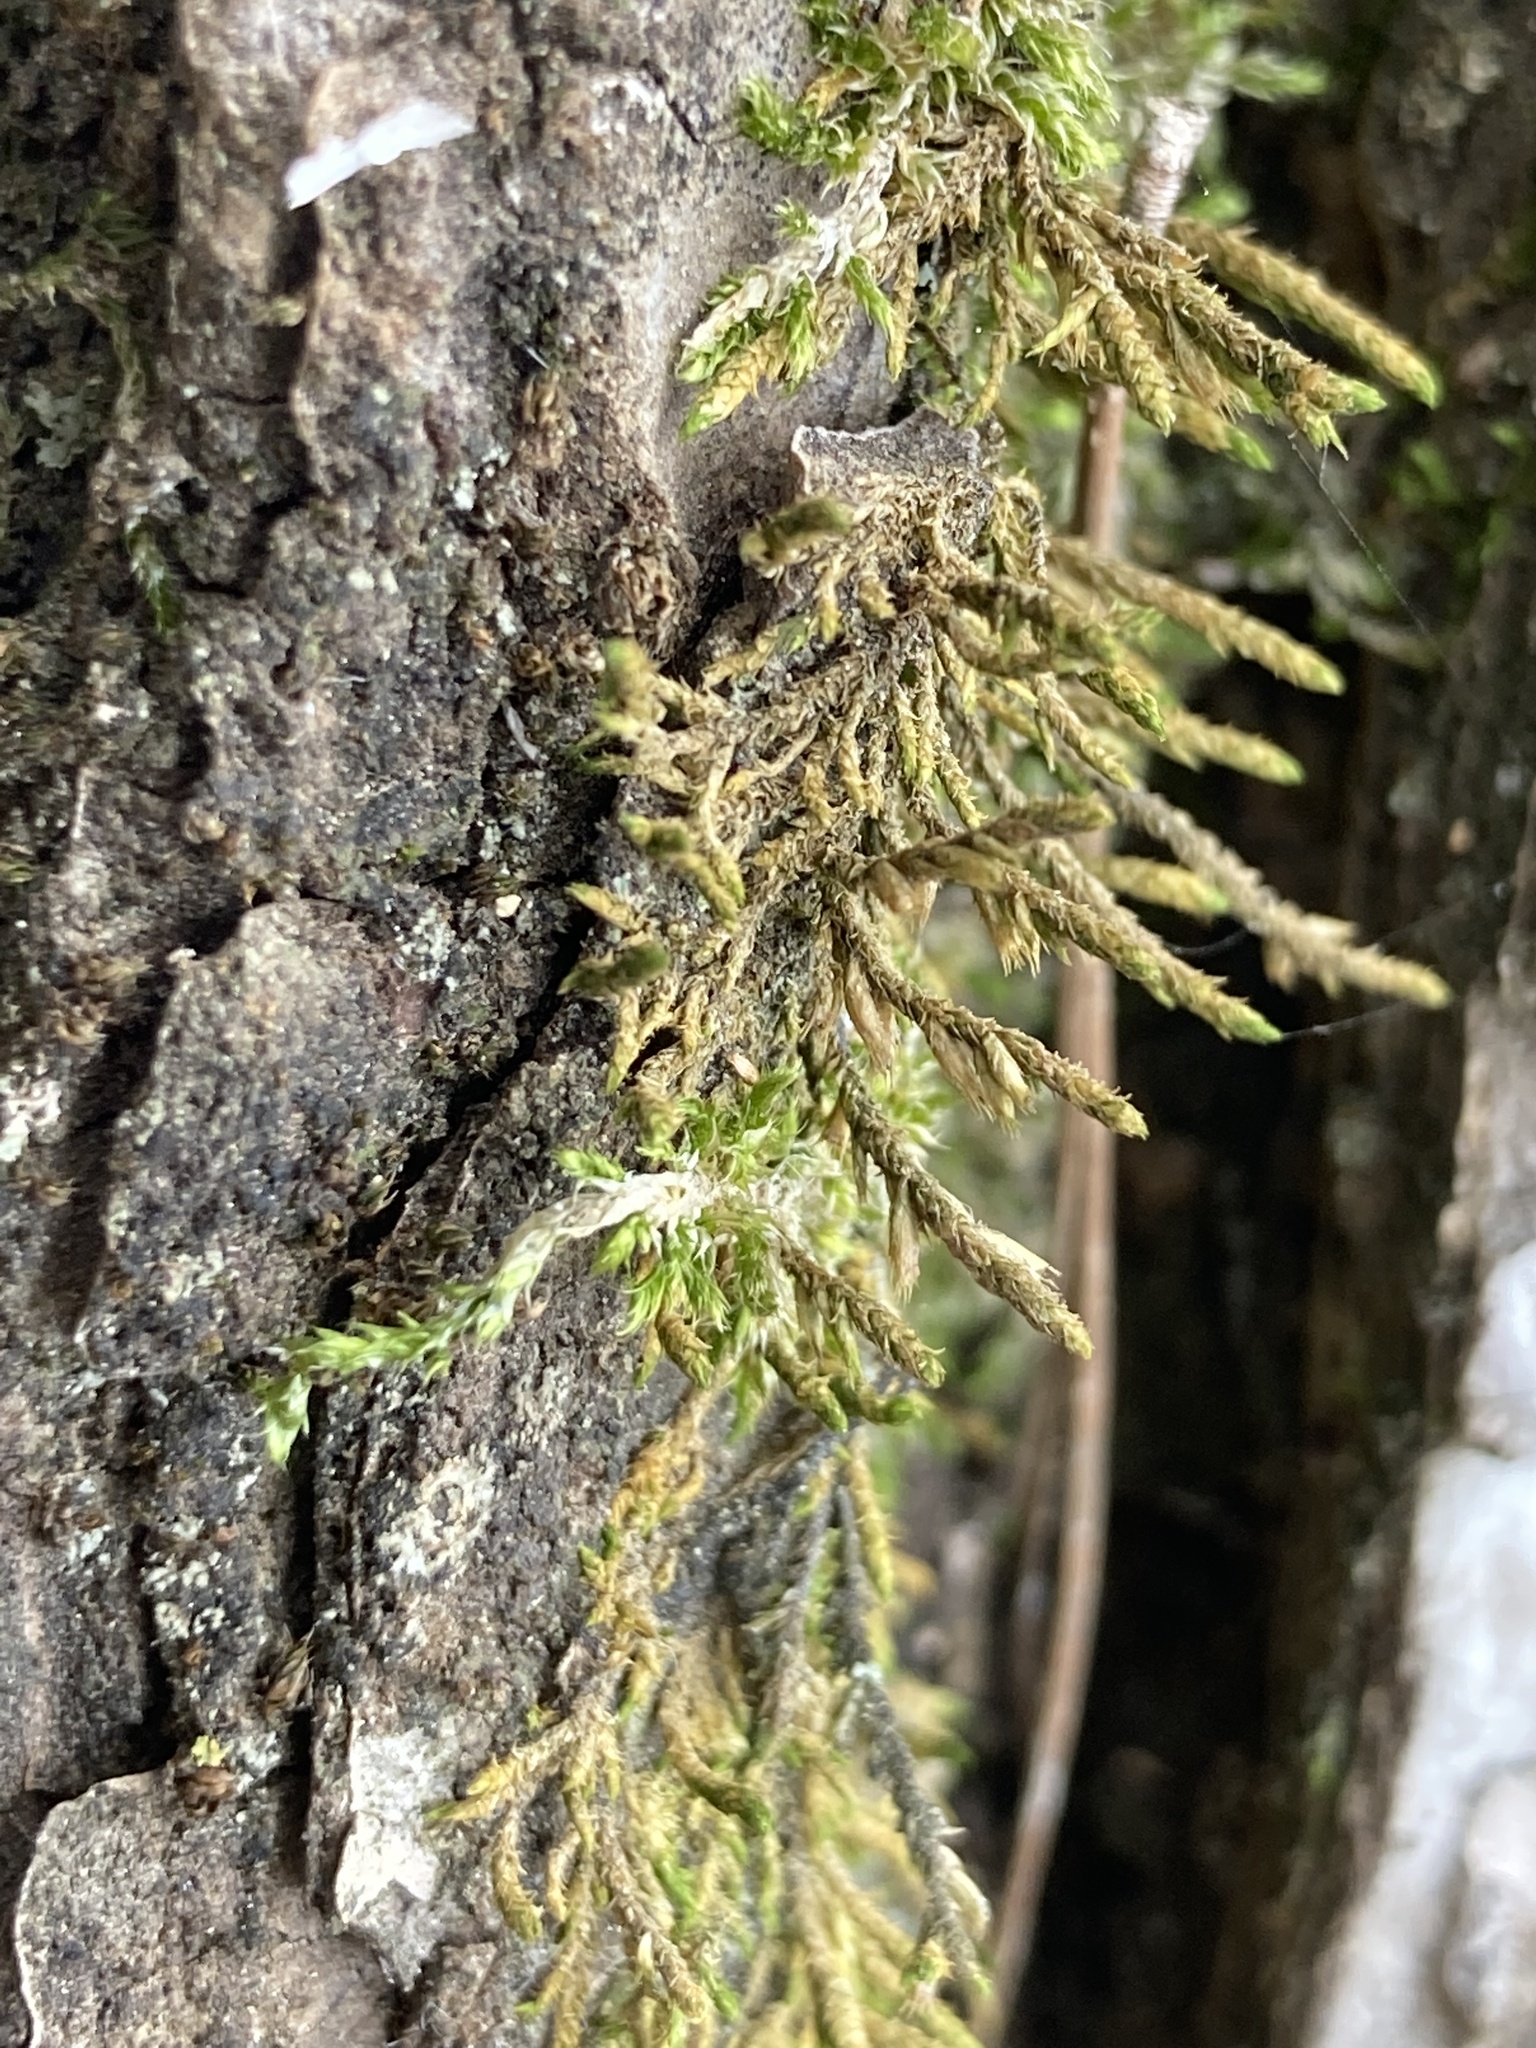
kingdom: Plantae
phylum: Bryophyta
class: Bryopsida
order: Hypnales
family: Cryphaeaceae
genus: Cryphaea
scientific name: Cryphaea heteromalla
